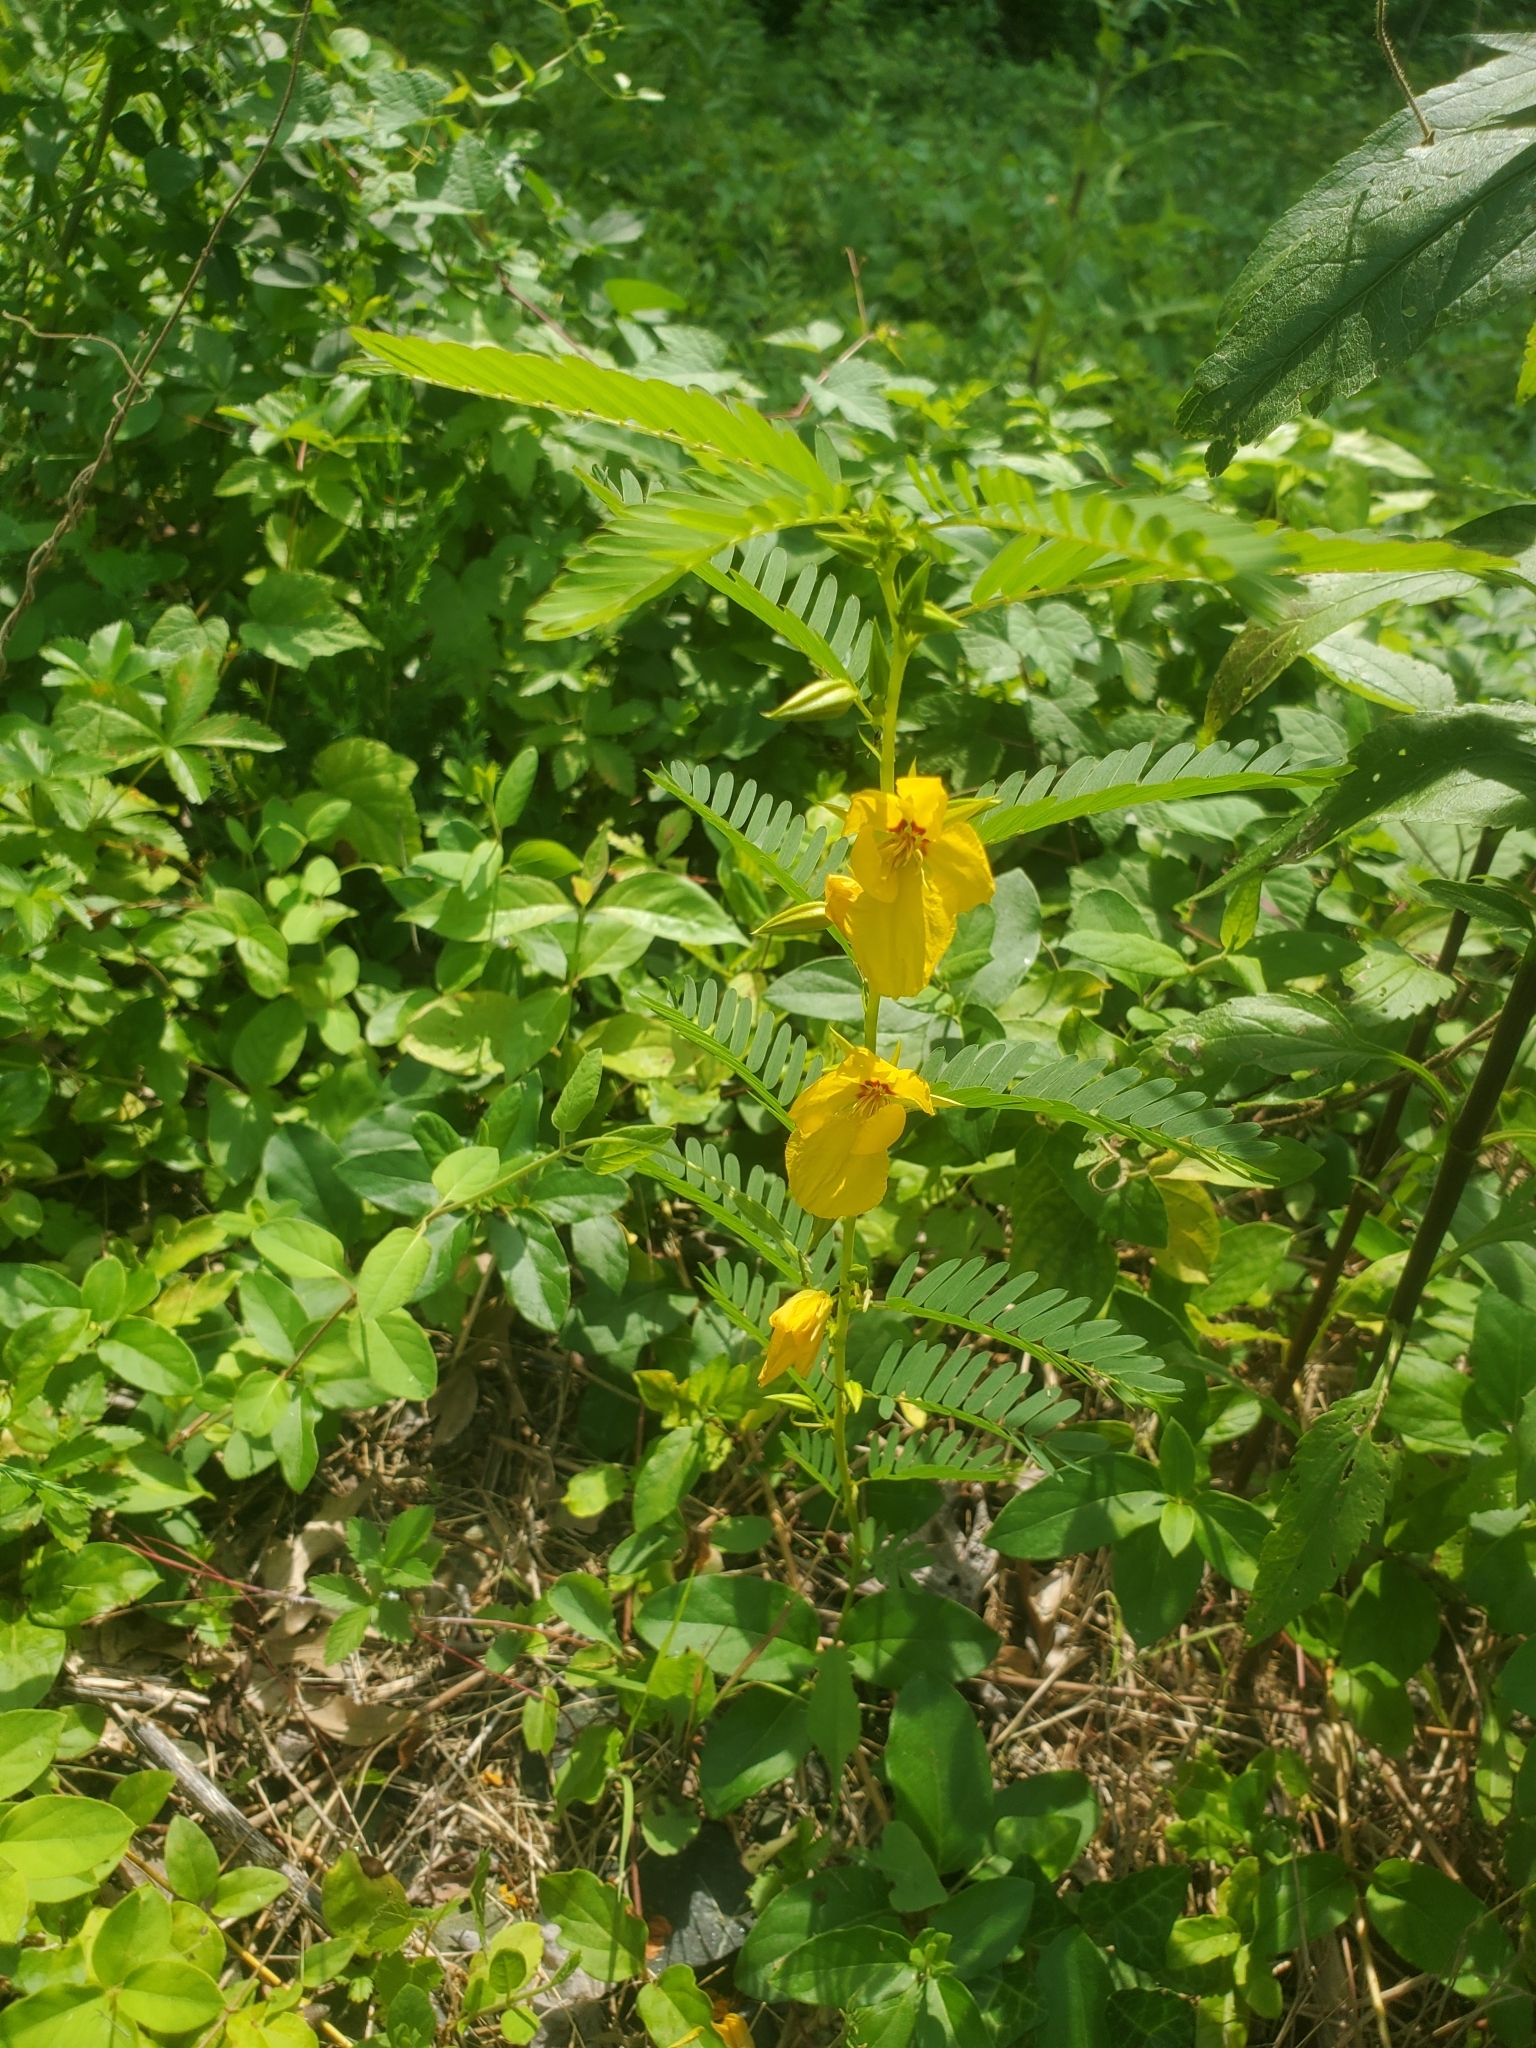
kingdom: Plantae
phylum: Tracheophyta
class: Magnoliopsida
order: Fabales
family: Fabaceae
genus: Chamaecrista
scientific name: Chamaecrista fasciculata
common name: Golden cassia
